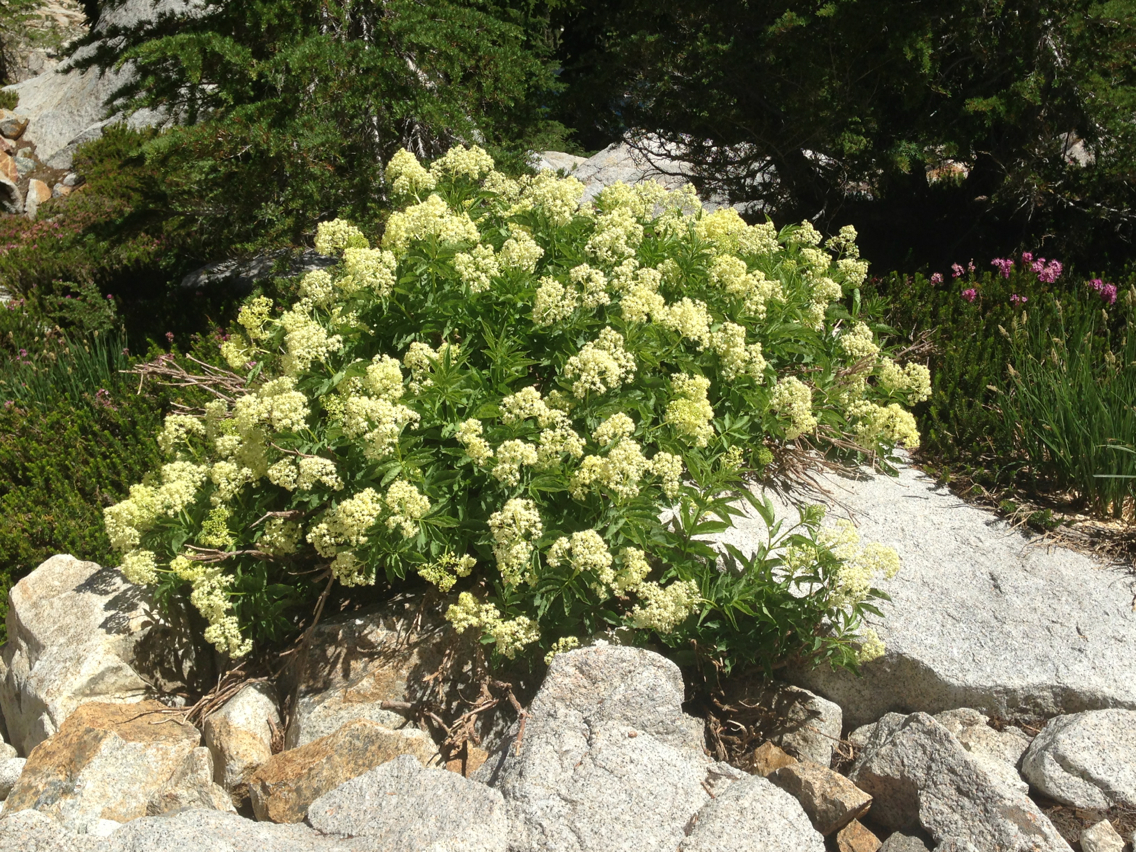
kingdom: Plantae
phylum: Tracheophyta
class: Magnoliopsida
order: Dipsacales
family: Viburnaceae
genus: Sambucus
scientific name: Sambucus racemosa
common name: Red-berried elder
